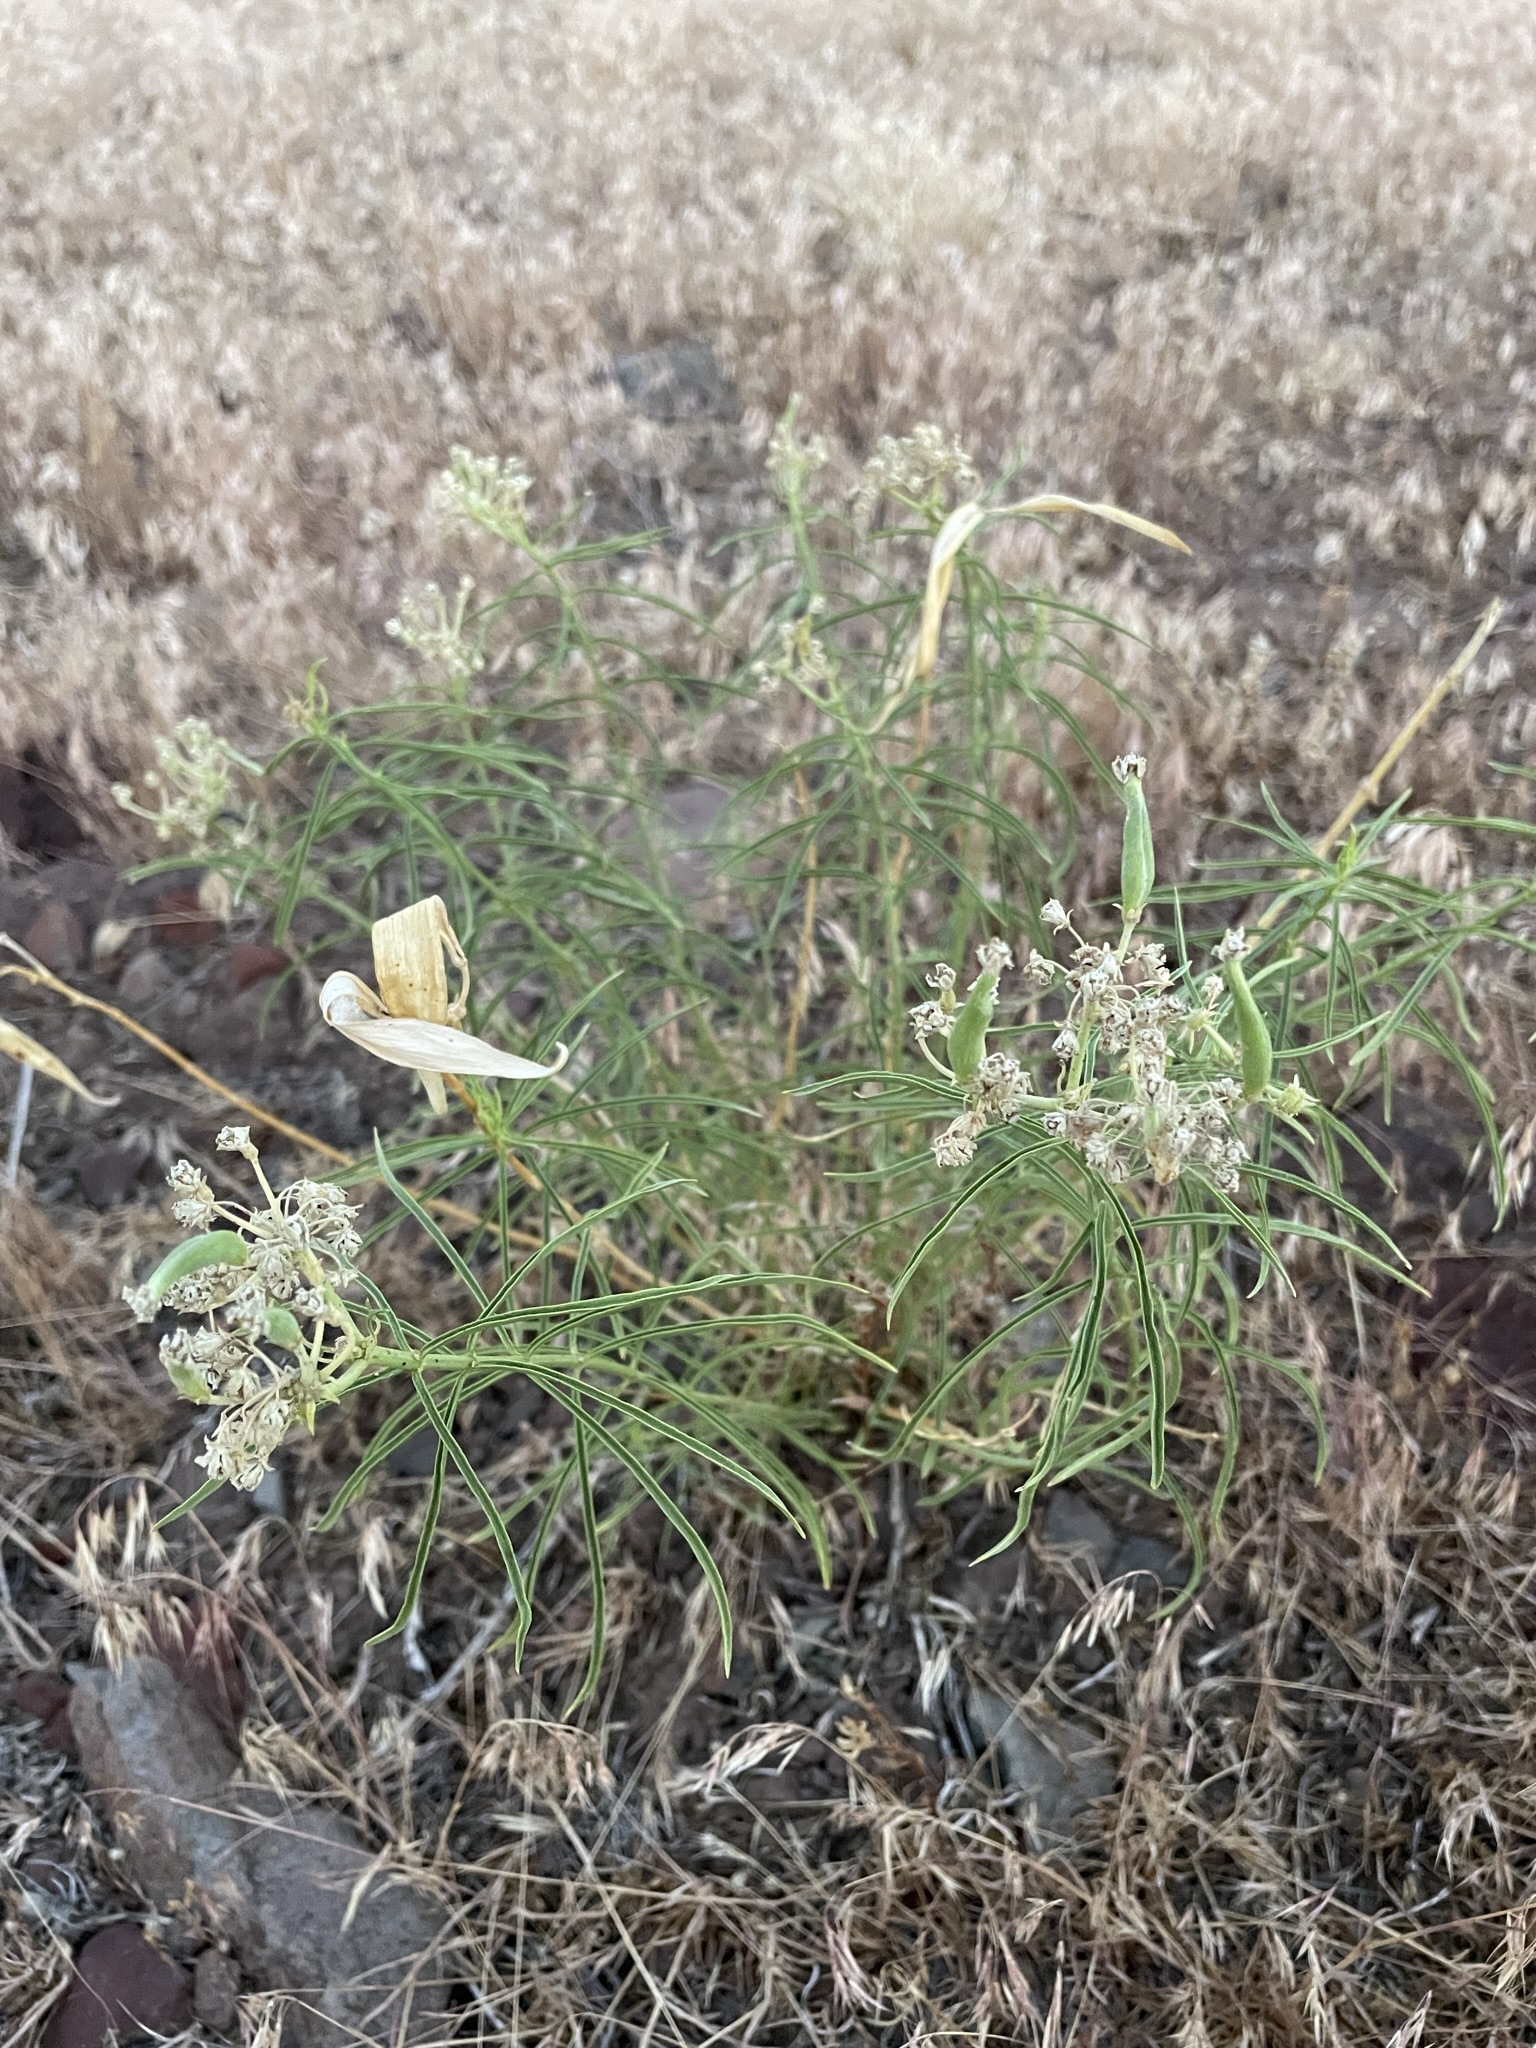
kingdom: Plantae
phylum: Tracheophyta
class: Magnoliopsida
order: Gentianales
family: Apocynaceae
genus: Asclepias
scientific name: Asclepias fascicularis
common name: Mexican milkweed
